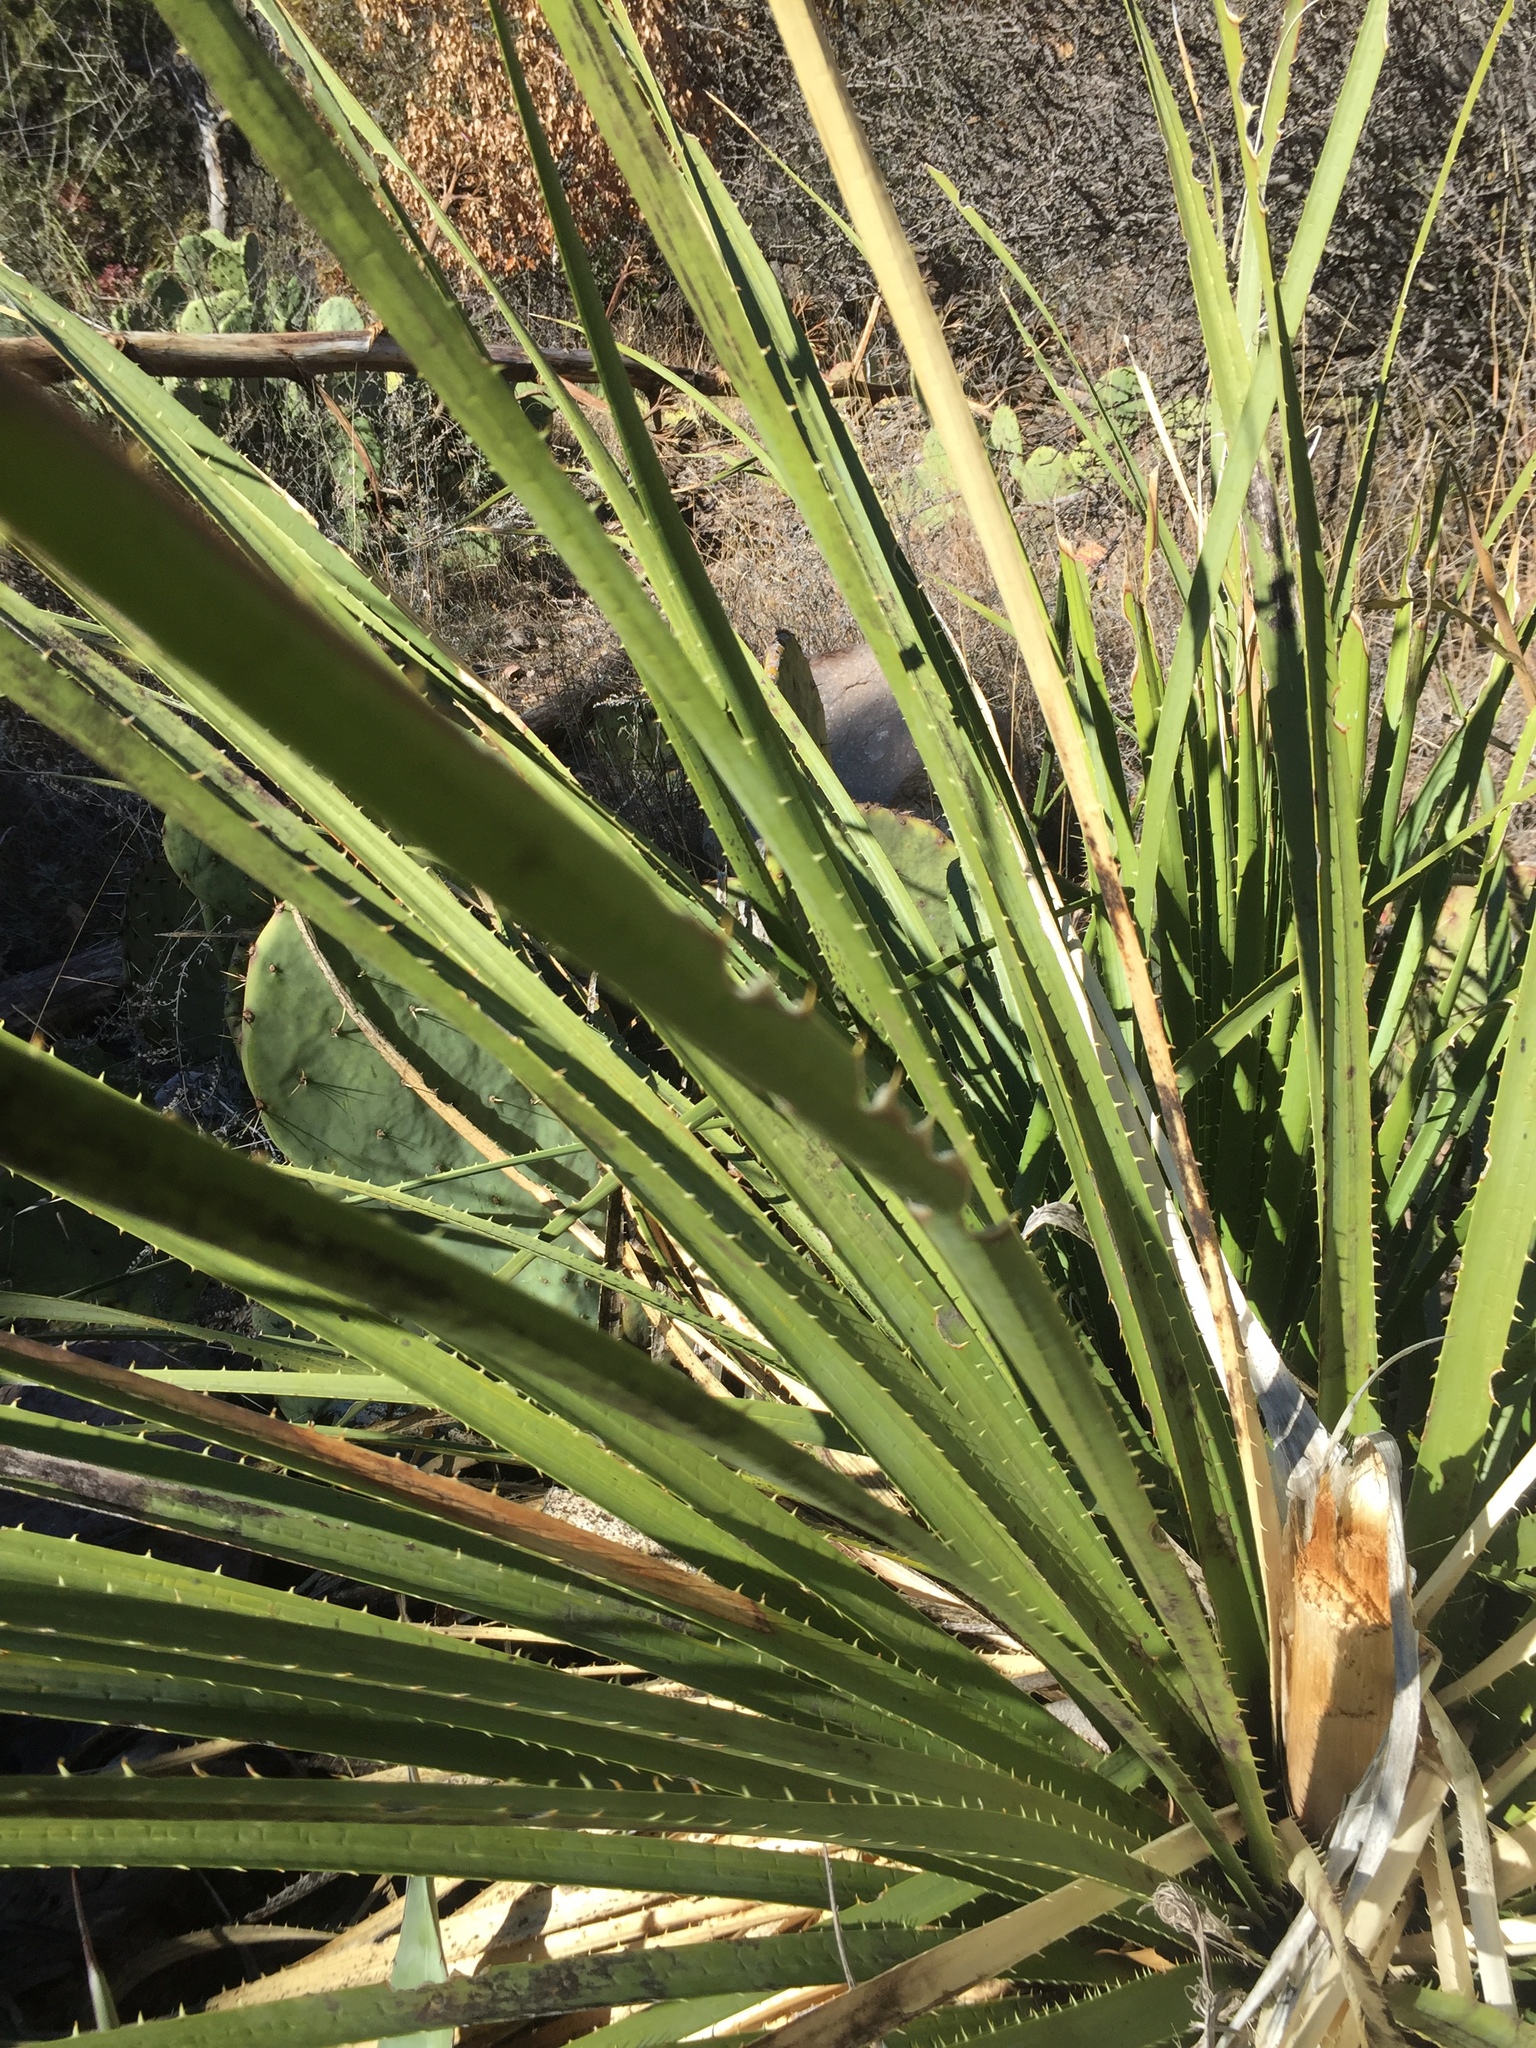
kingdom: Plantae
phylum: Tracheophyta
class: Liliopsida
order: Asparagales
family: Asparagaceae
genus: Dasylirion
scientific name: Dasylirion leiophyllum
